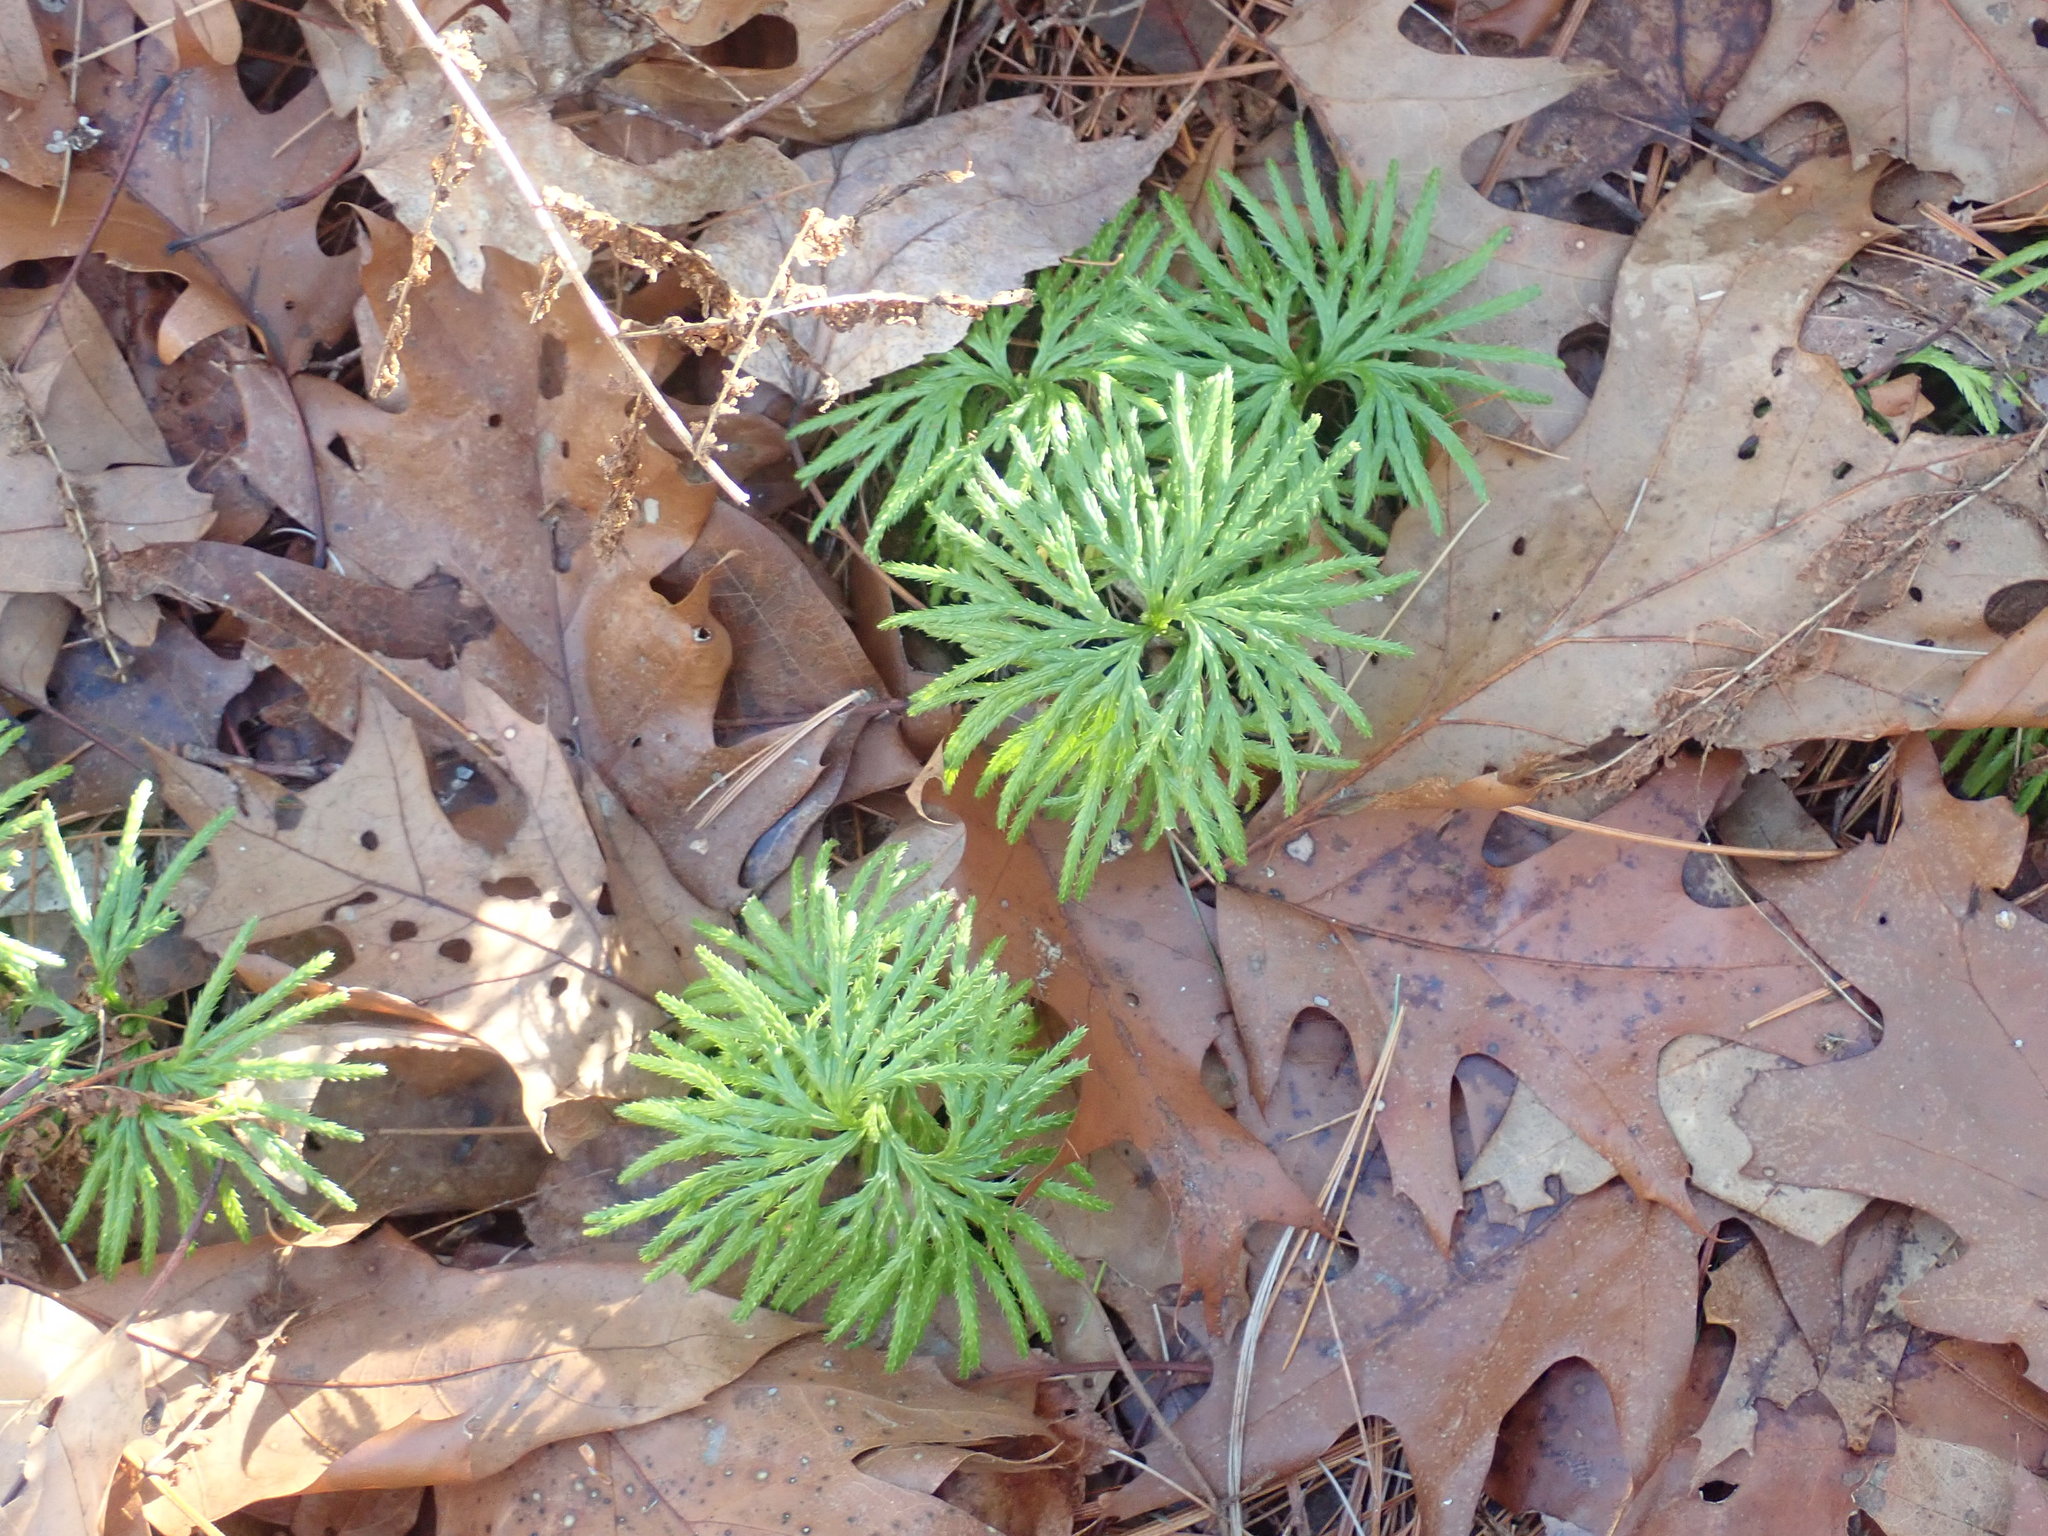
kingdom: Plantae
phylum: Tracheophyta
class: Lycopodiopsida
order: Lycopodiales
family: Lycopodiaceae
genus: Diphasiastrum
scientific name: Diphasiastrum digitatum
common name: Southern running-pine
